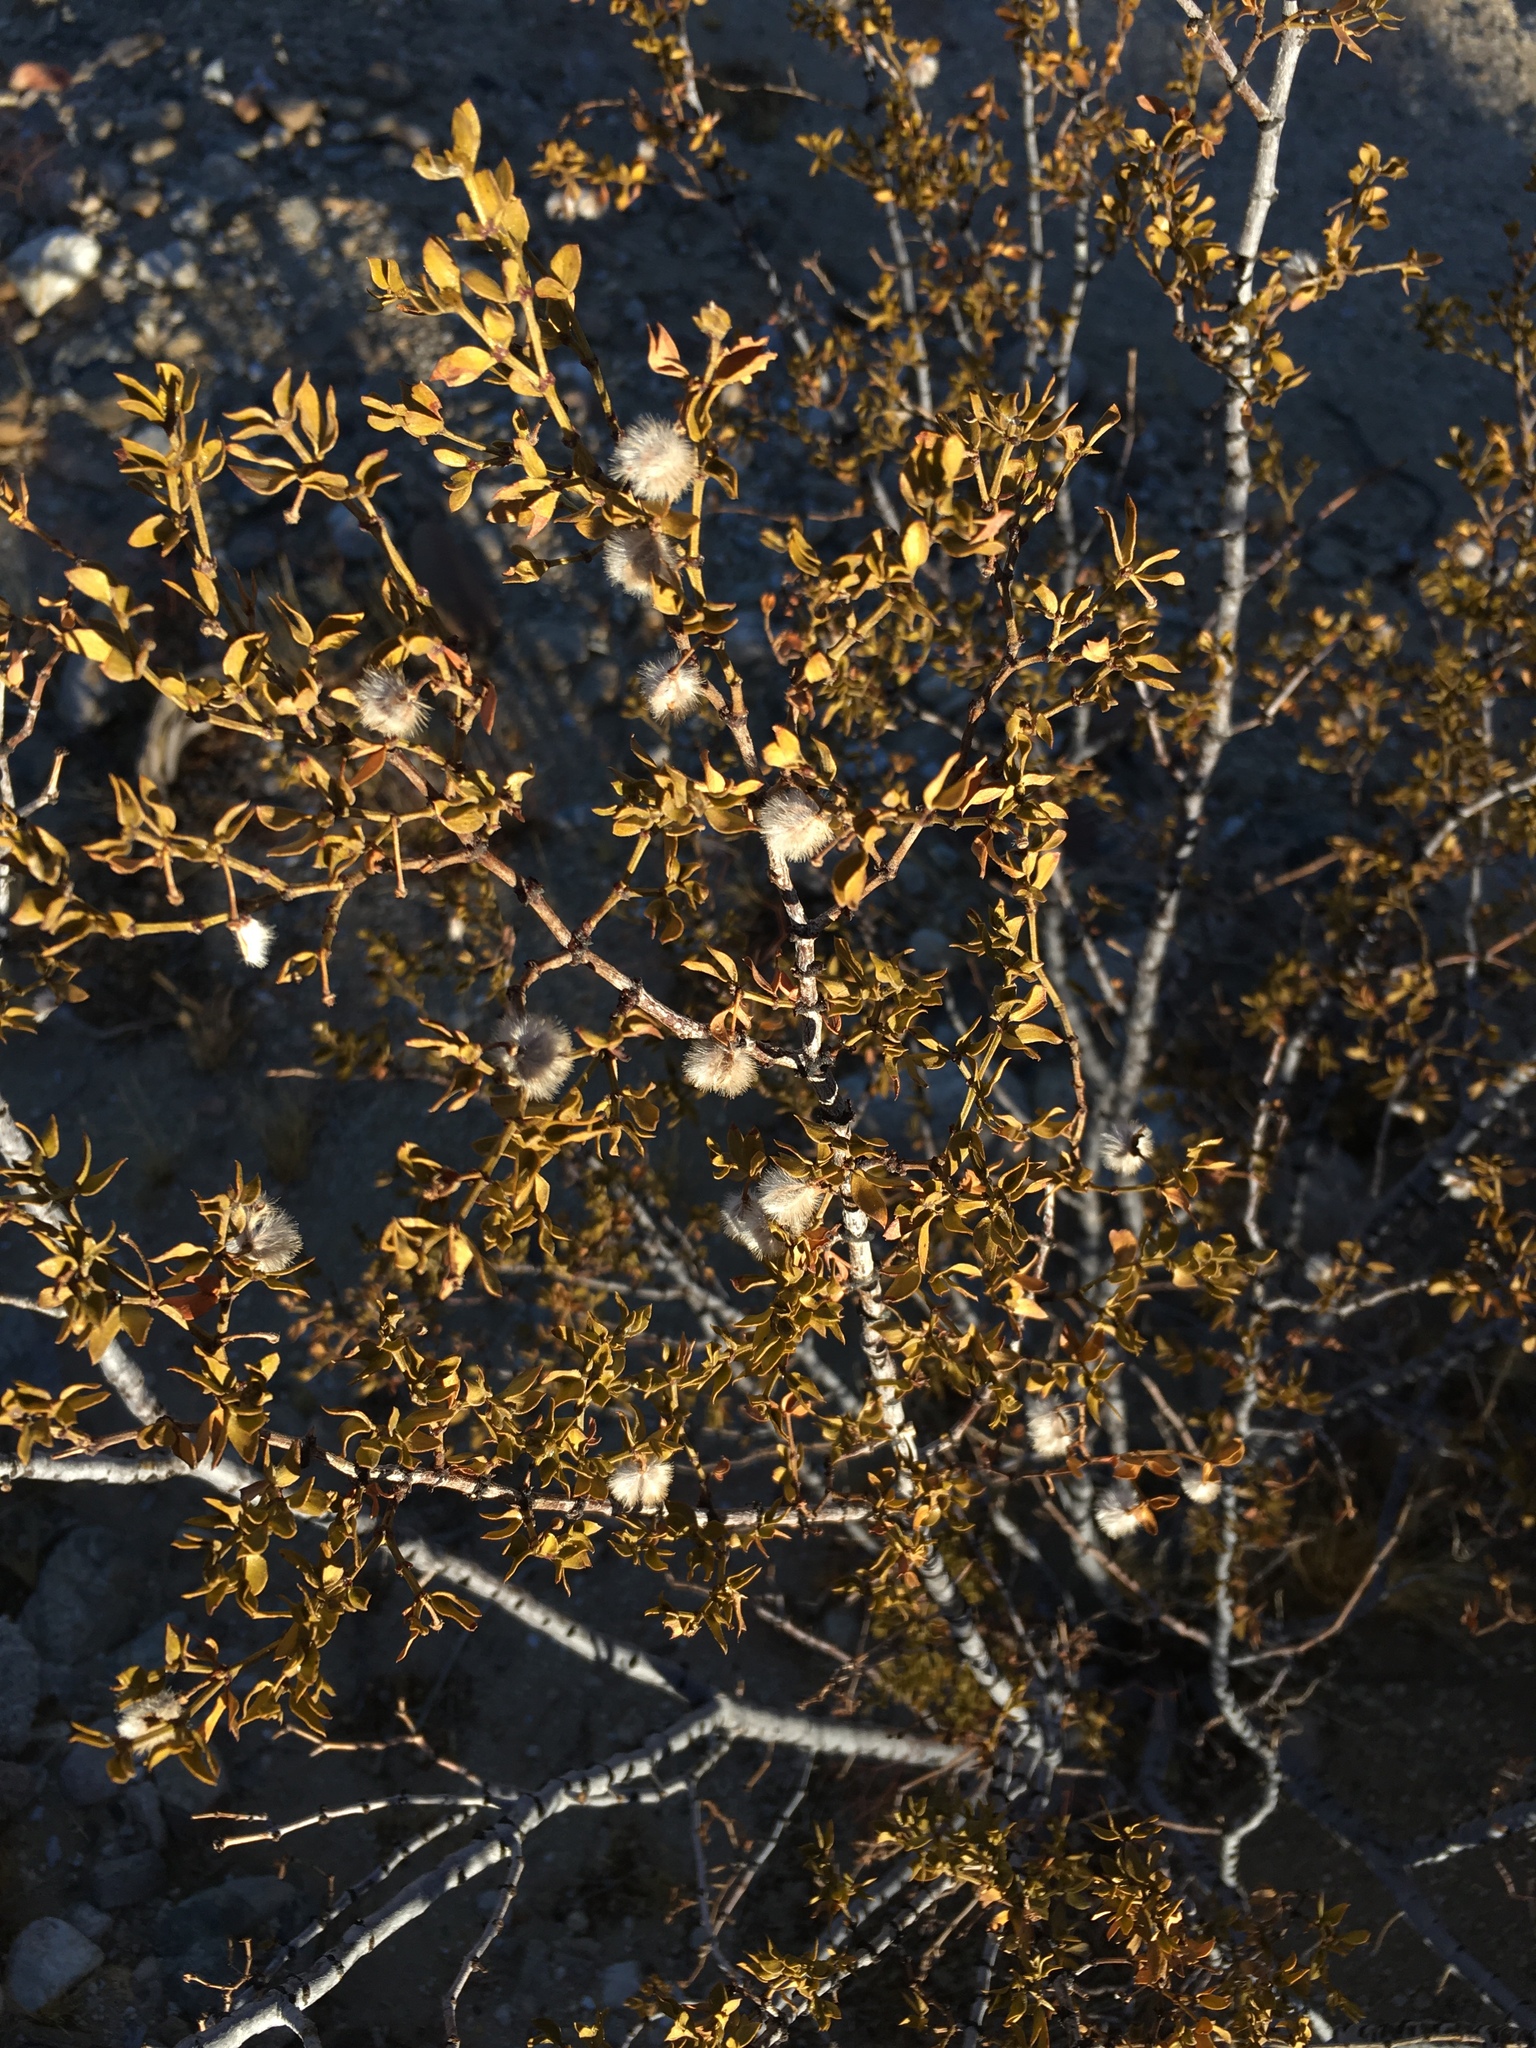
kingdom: Plantae
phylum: Tracheophyta
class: Magnoliopsida
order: Zygophyllales
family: Zygophyllaceae
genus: Larrea
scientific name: Larrea tridentata
